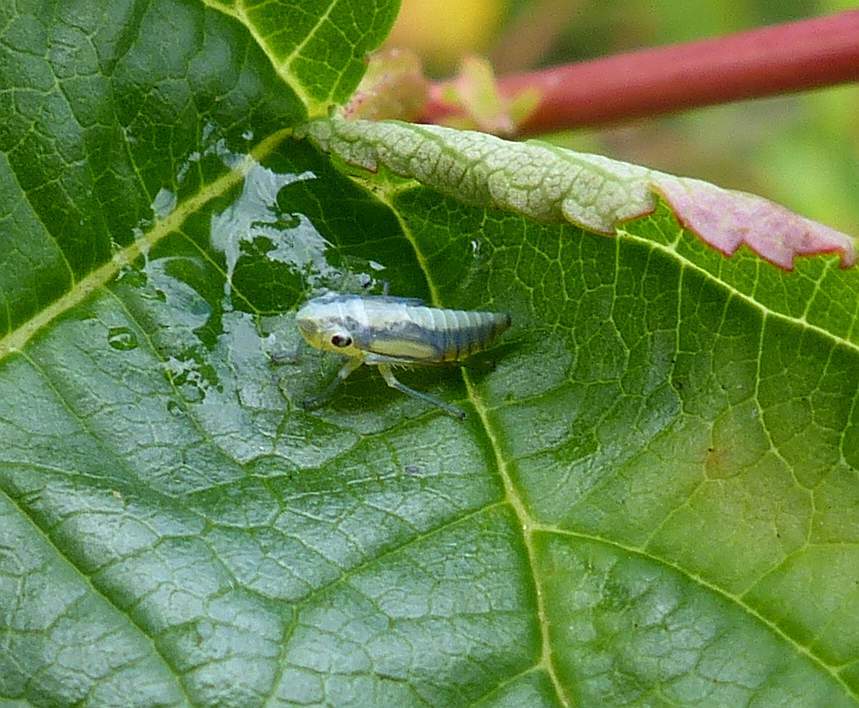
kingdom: Animalia
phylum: Arthropoda
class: Insecta
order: Hemiptera
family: Cicadellidae
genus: Neokolla
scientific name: Neokolla hieroglyphica
